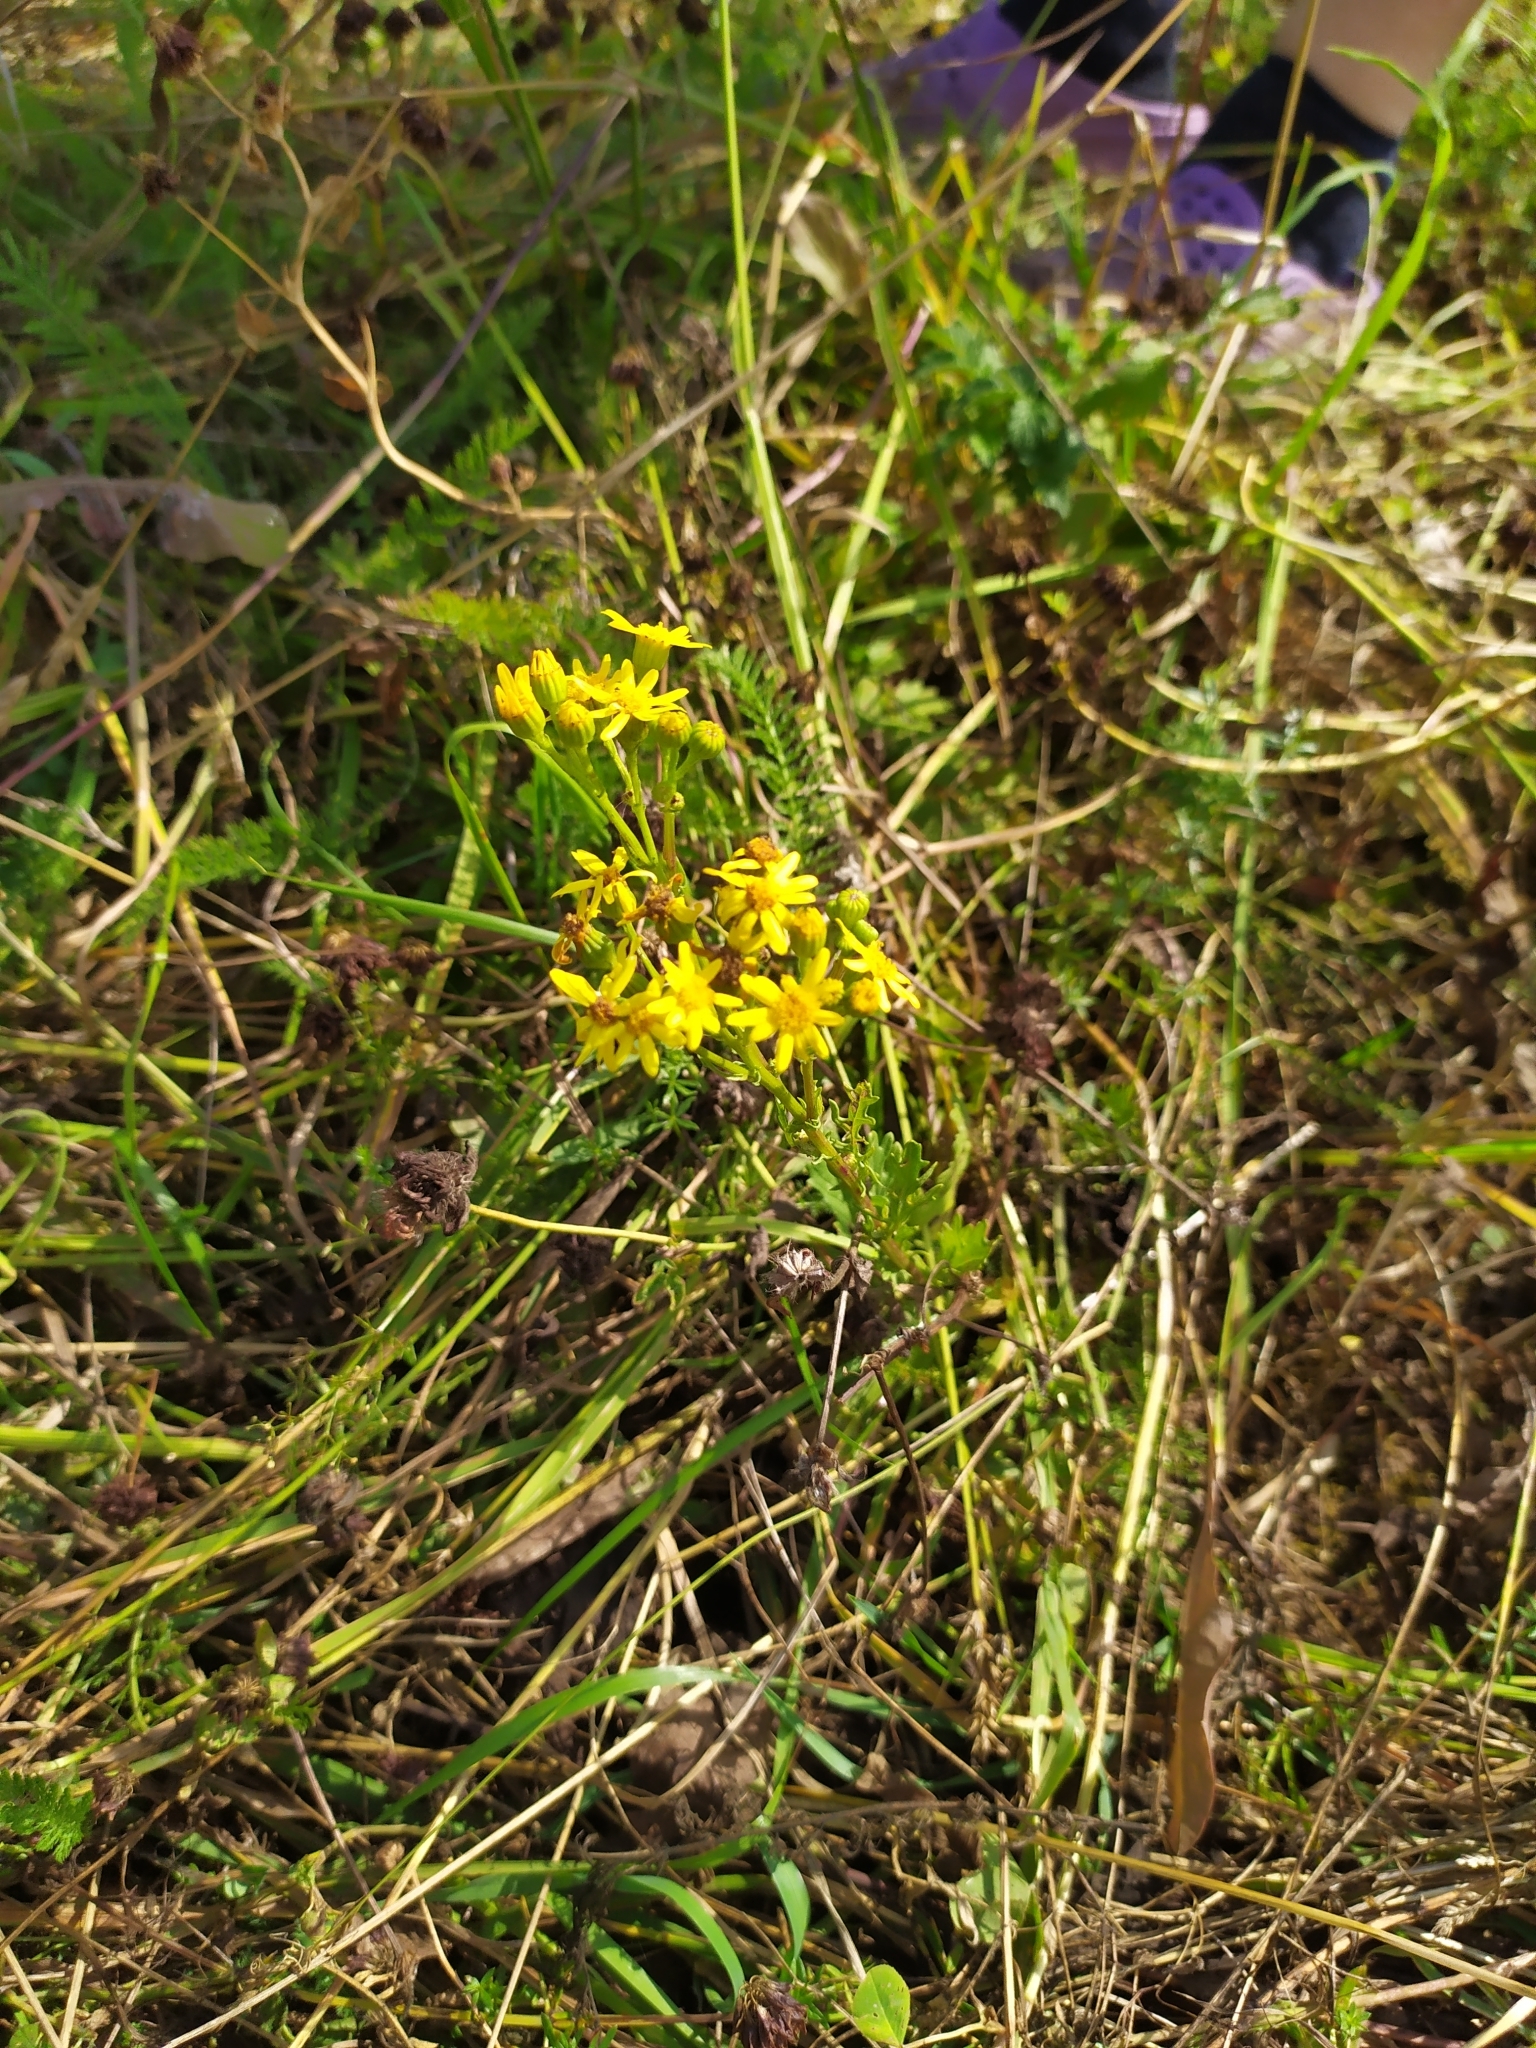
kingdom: Plantae
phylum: Tracheophyta
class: Magnoliopsida
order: Asterales
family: Asteraceae
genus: Jacobaea
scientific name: Jacobaea vulgaris
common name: Stinking willie
